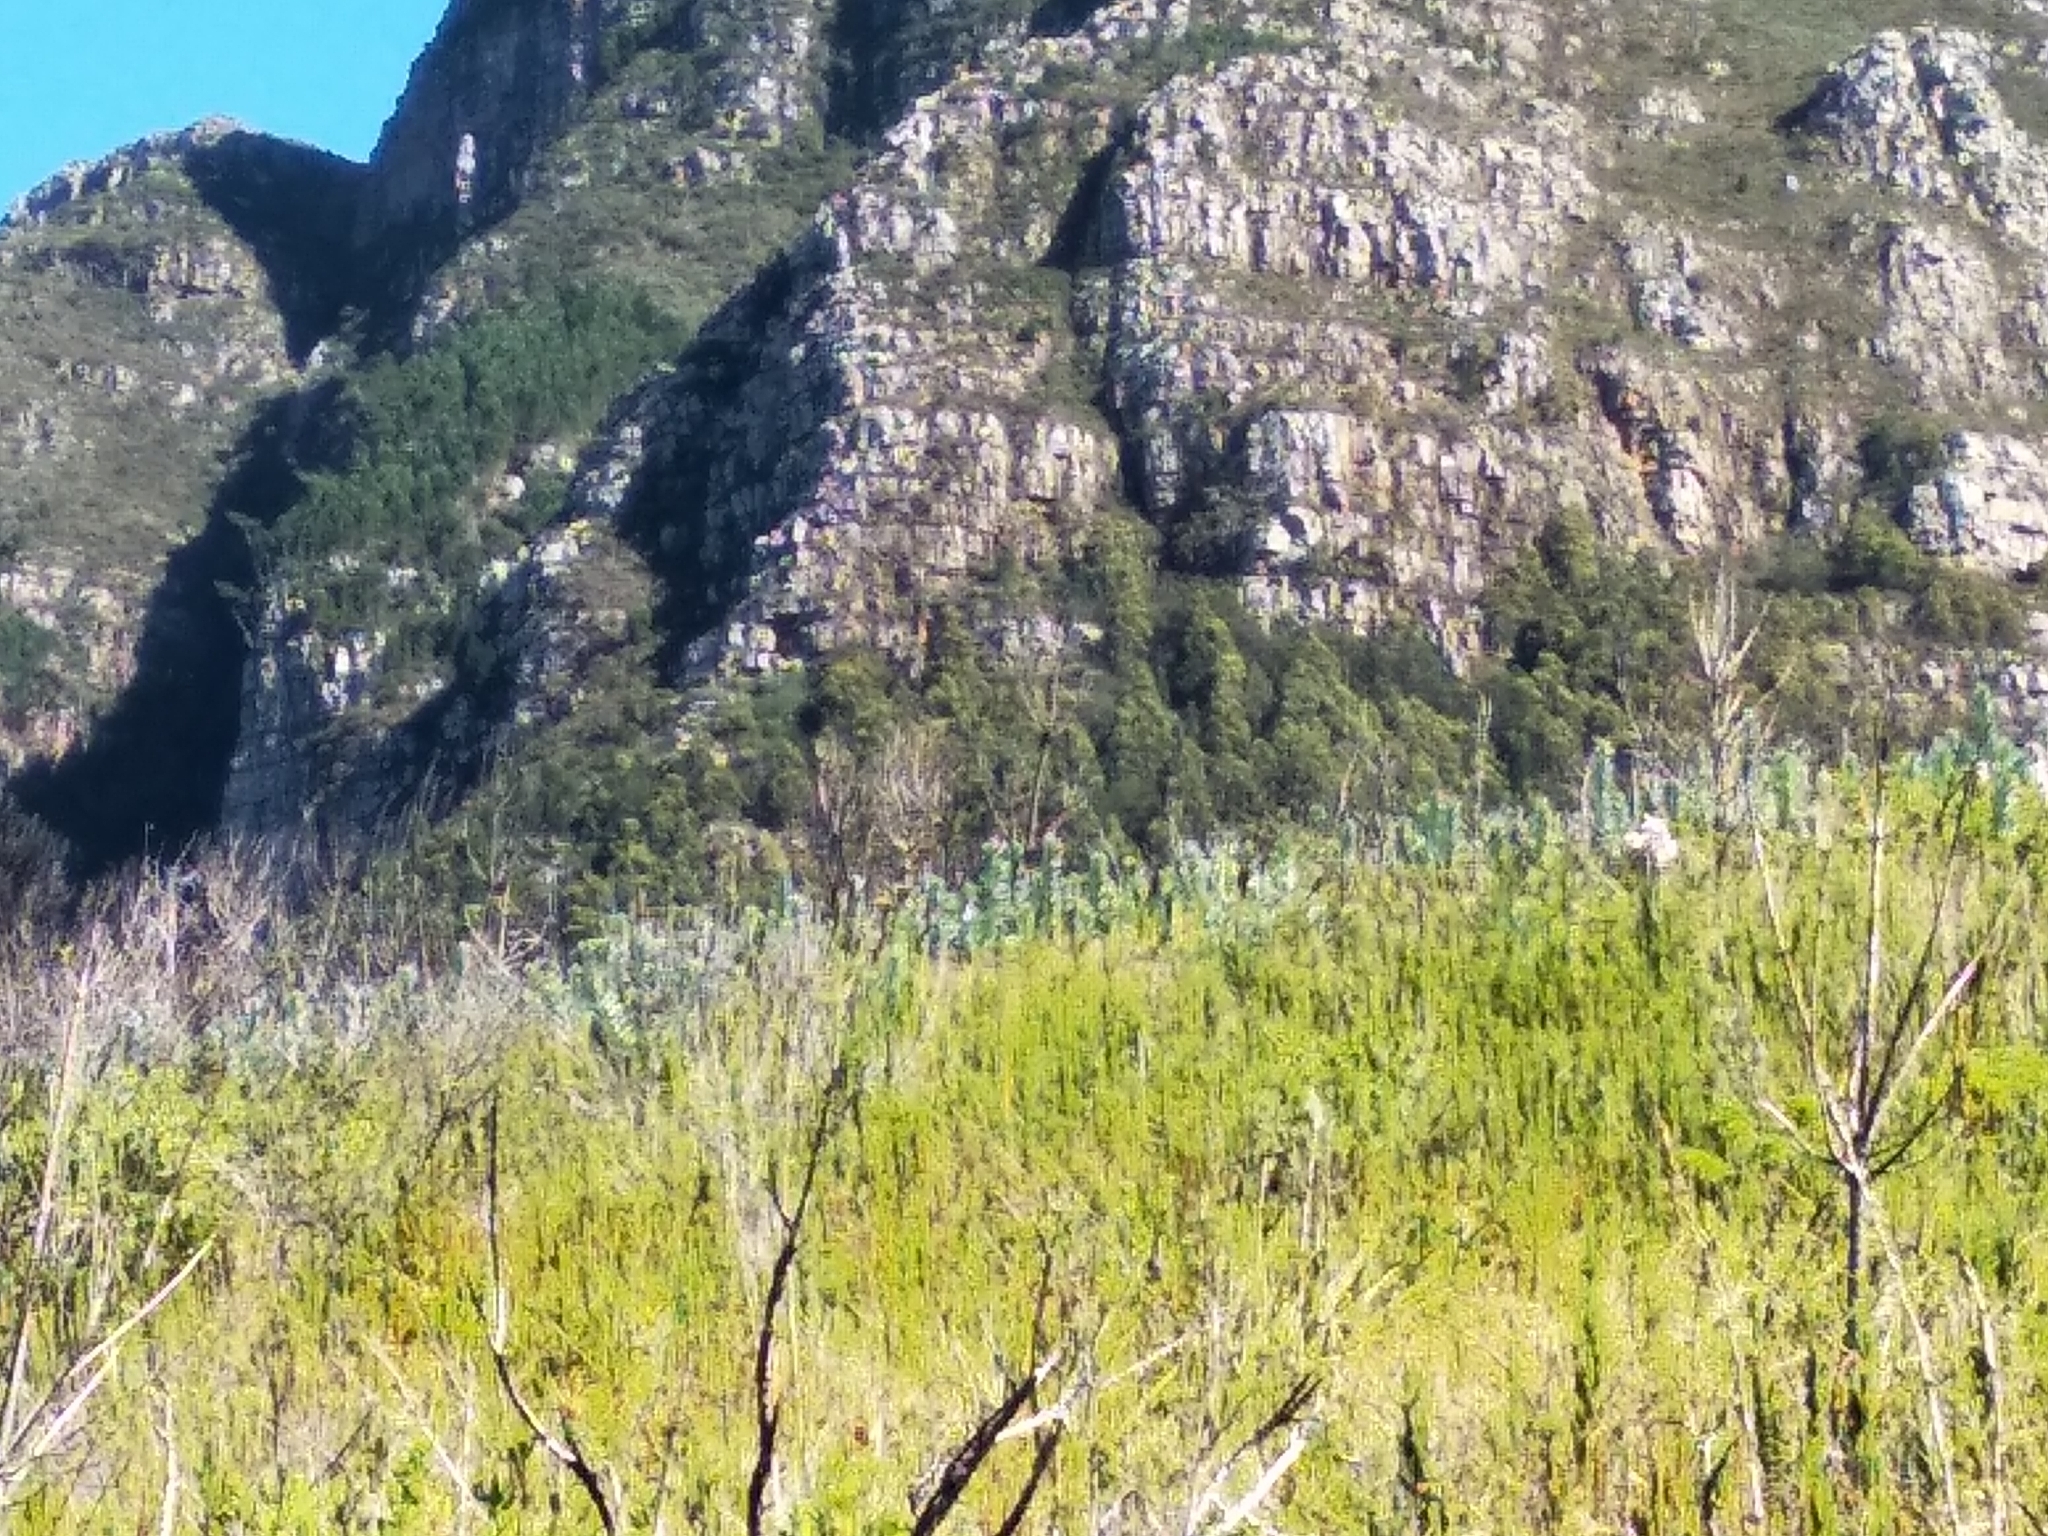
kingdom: Plantae
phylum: Tracheophyta
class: Magnoliopsida
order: Proteales
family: Proteaceae
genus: Leucadendron
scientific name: Leucadendron argenteum
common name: Cape silver tree
